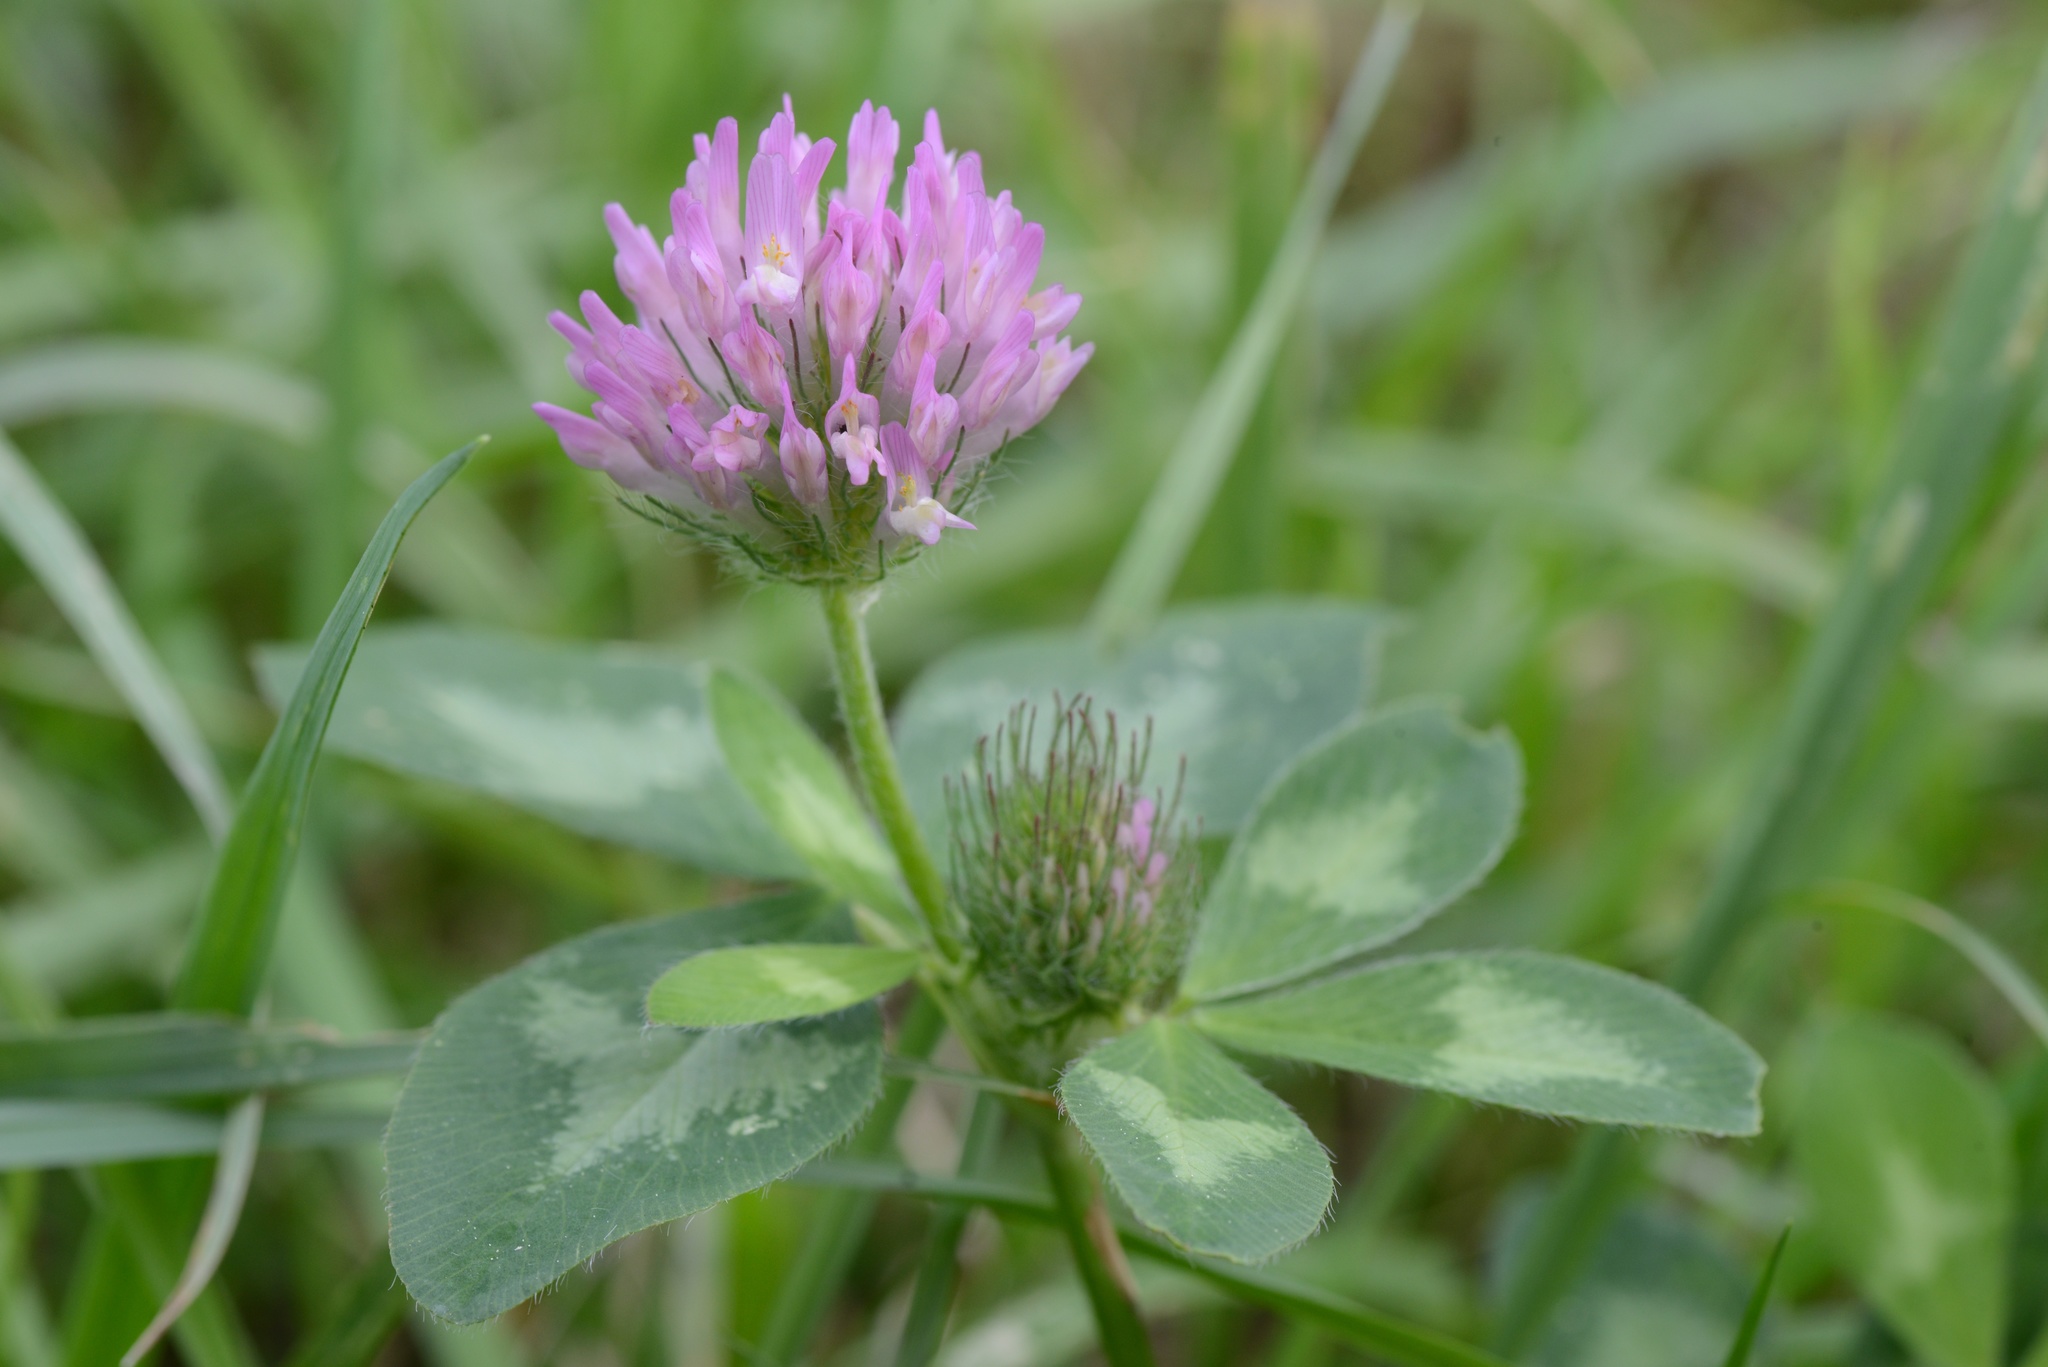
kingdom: Plantae
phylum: Tracheophyta
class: Magnoliopsida
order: Fabales
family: Fabaceae
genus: Trifolium
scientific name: Trifolium pratense
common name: Red clover
